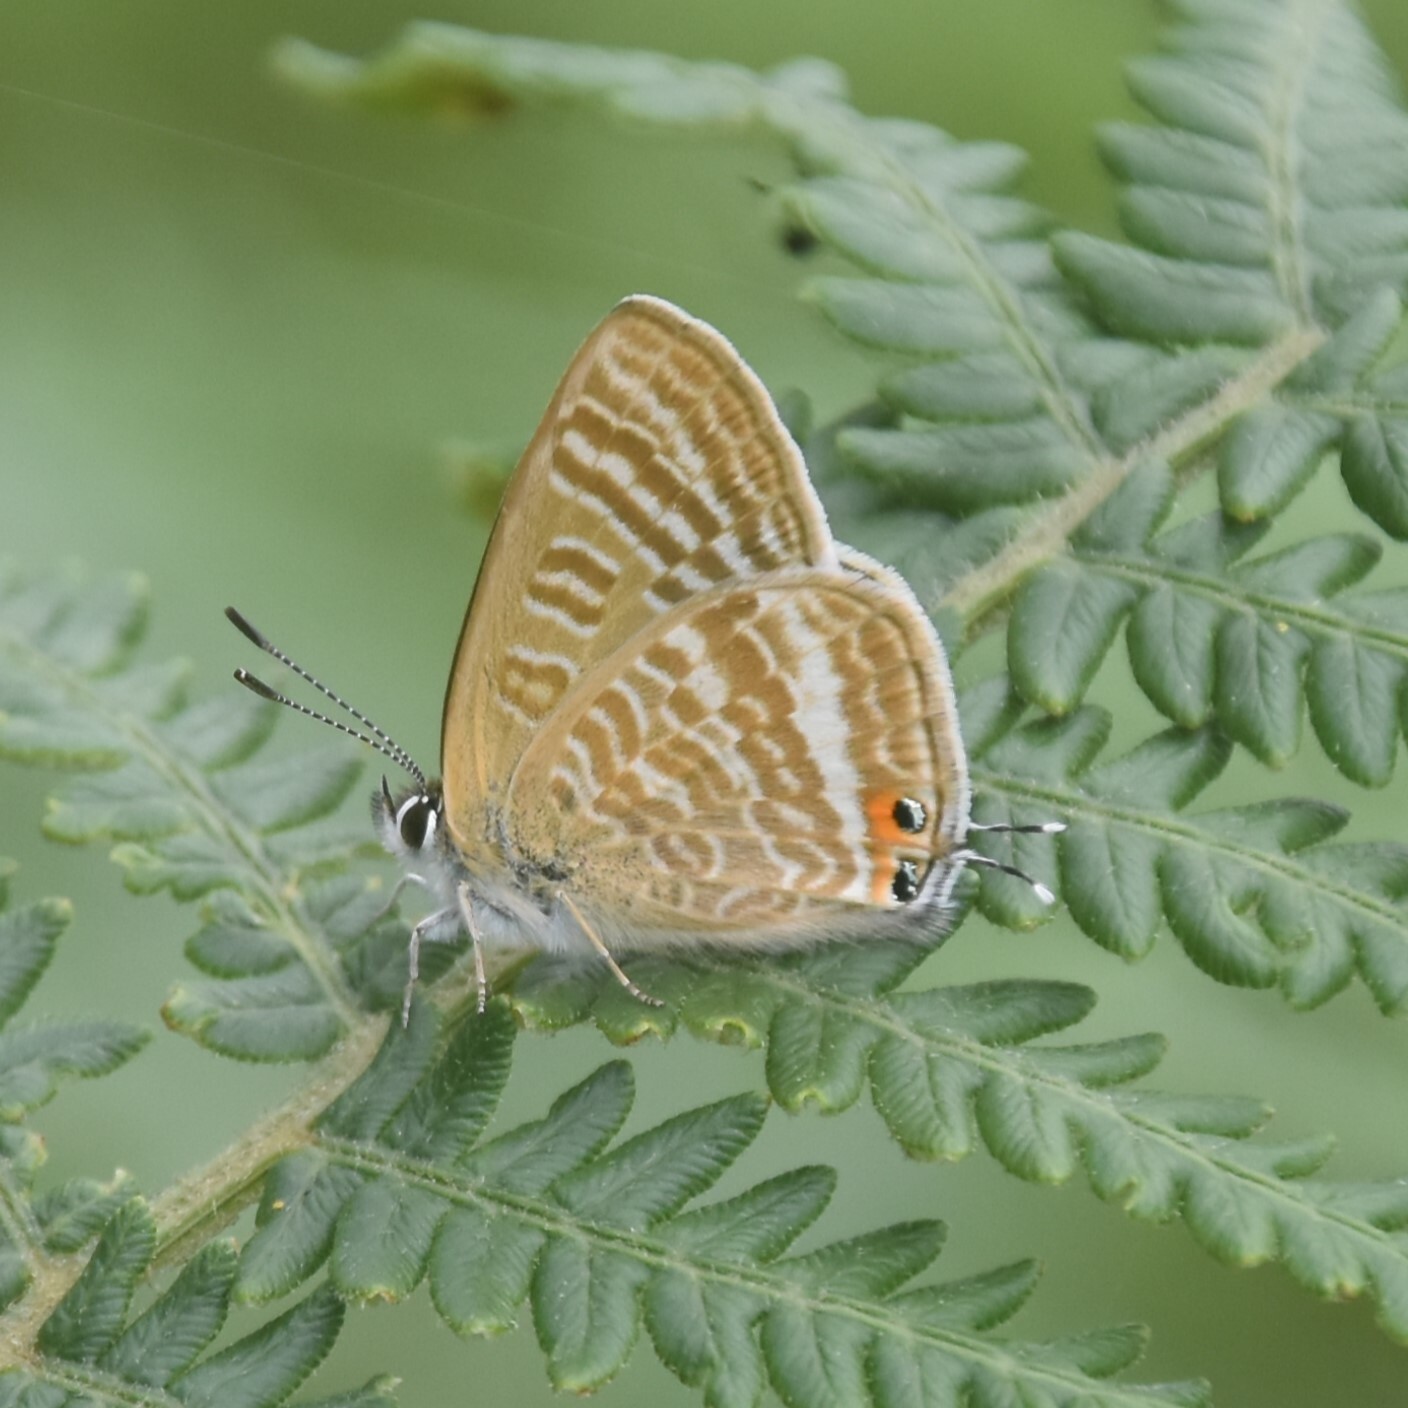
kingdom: Animalia
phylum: Arthropoda
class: Insecta
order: Lepidoptera
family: Lycaenidae
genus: Lampides
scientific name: Lampides boeticus
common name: Long-tailed blue
